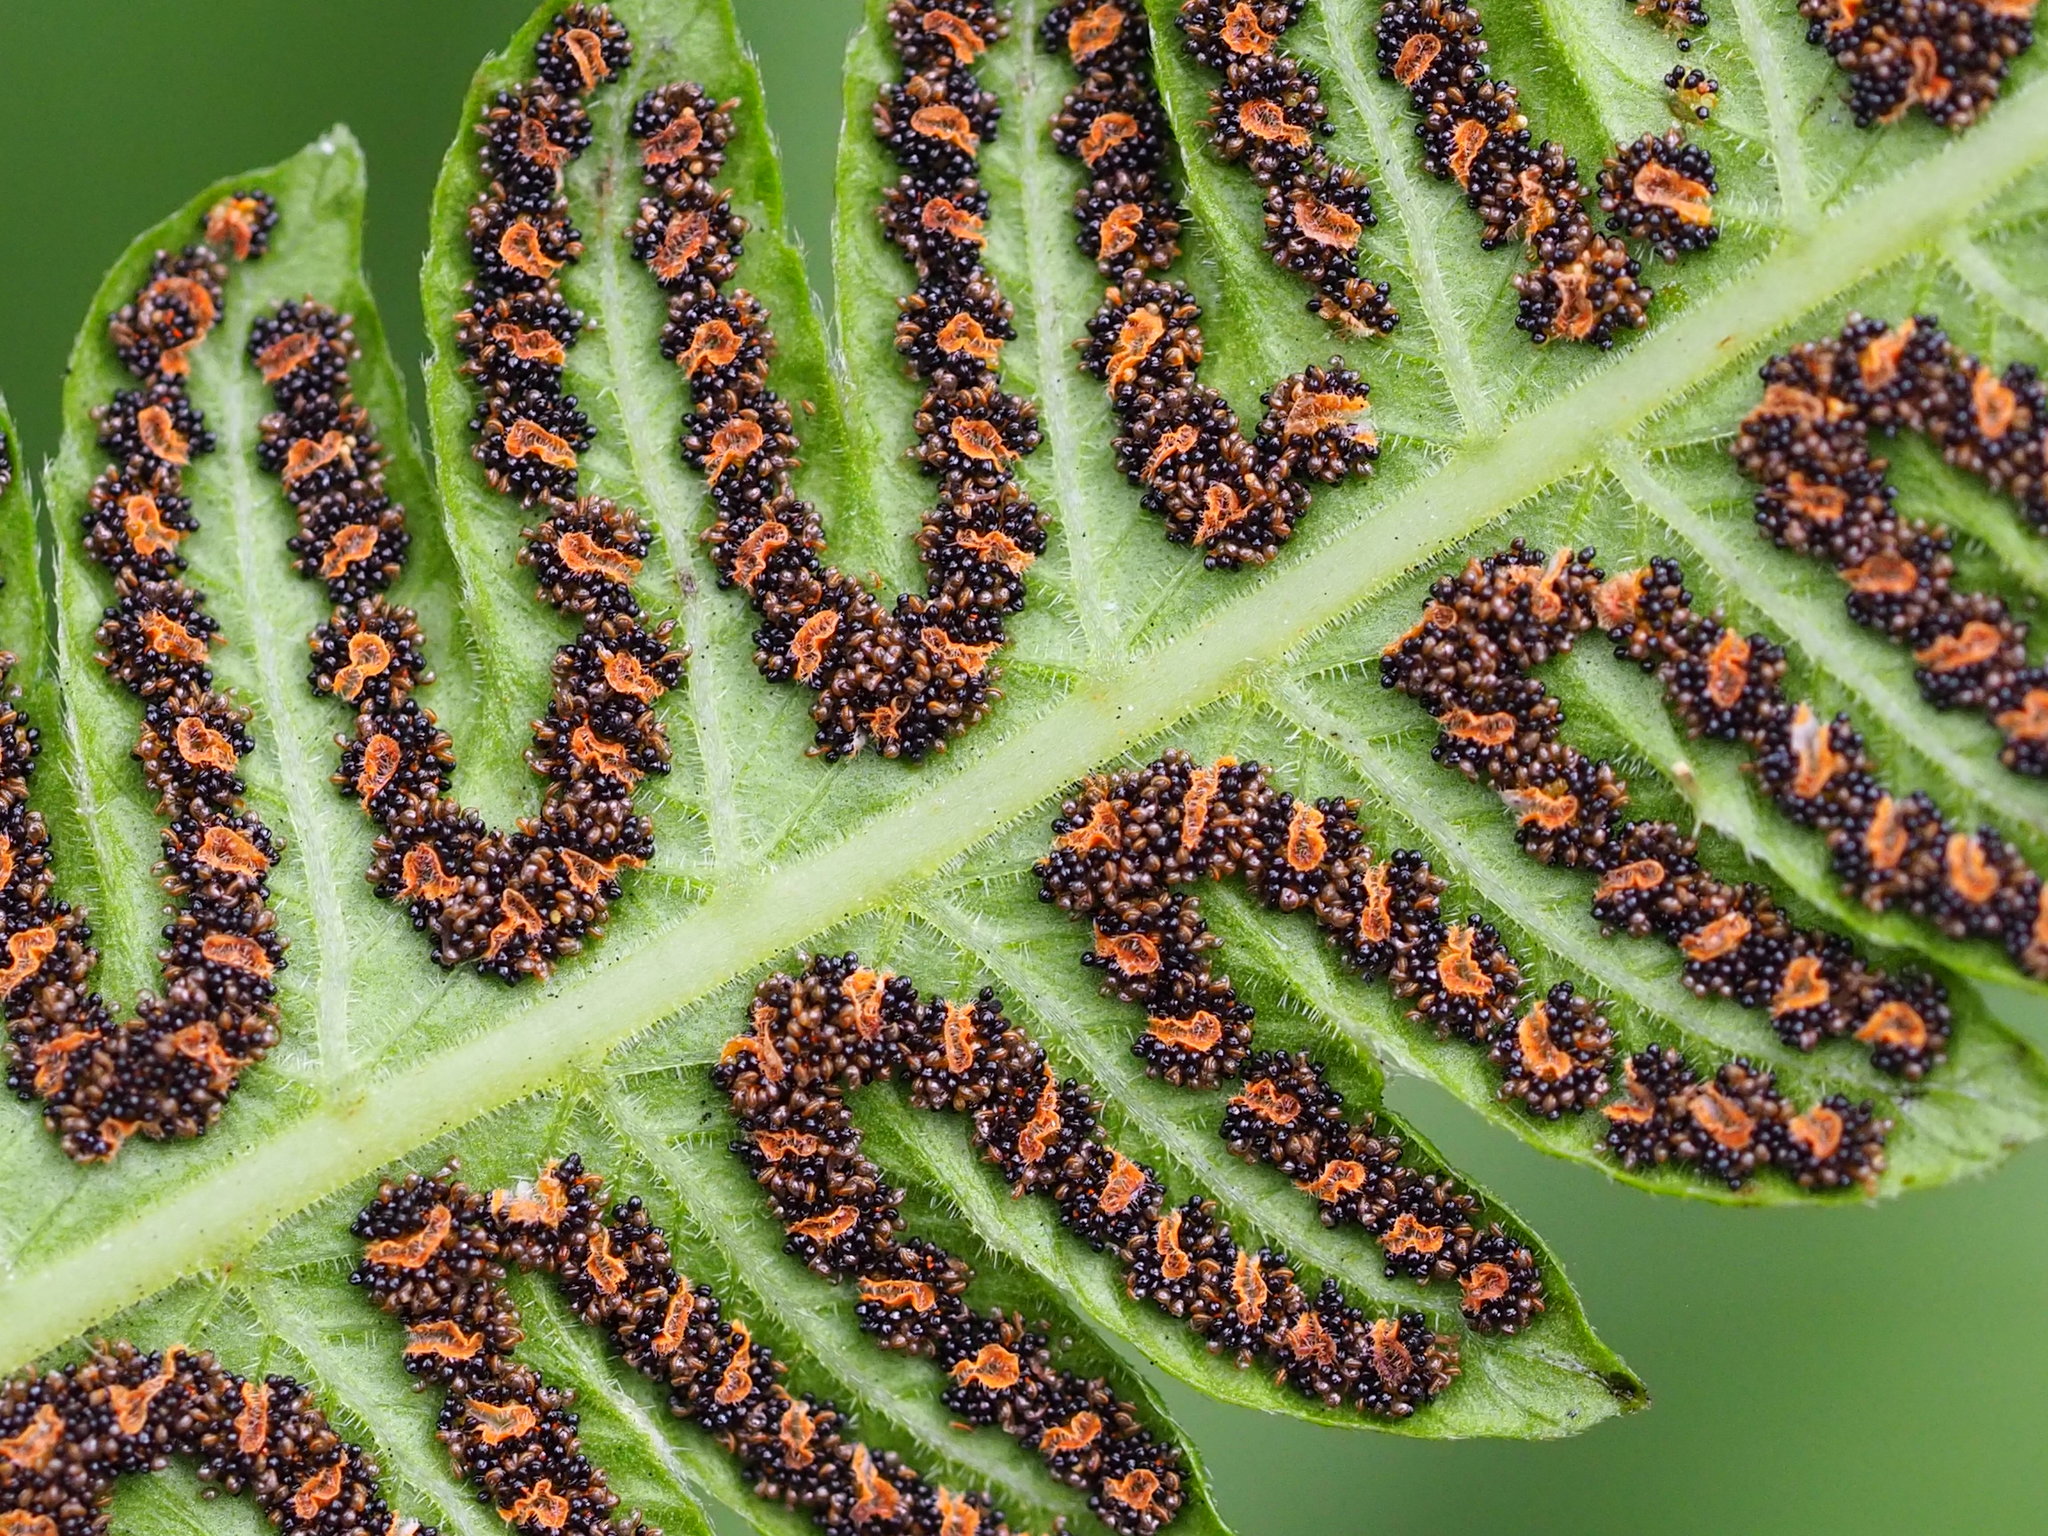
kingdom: Plantae
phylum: Tracheophyta
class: Polypodiopsida
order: Polypodiales
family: Thelypteridaceae
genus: Christella
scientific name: Christella acuminata
